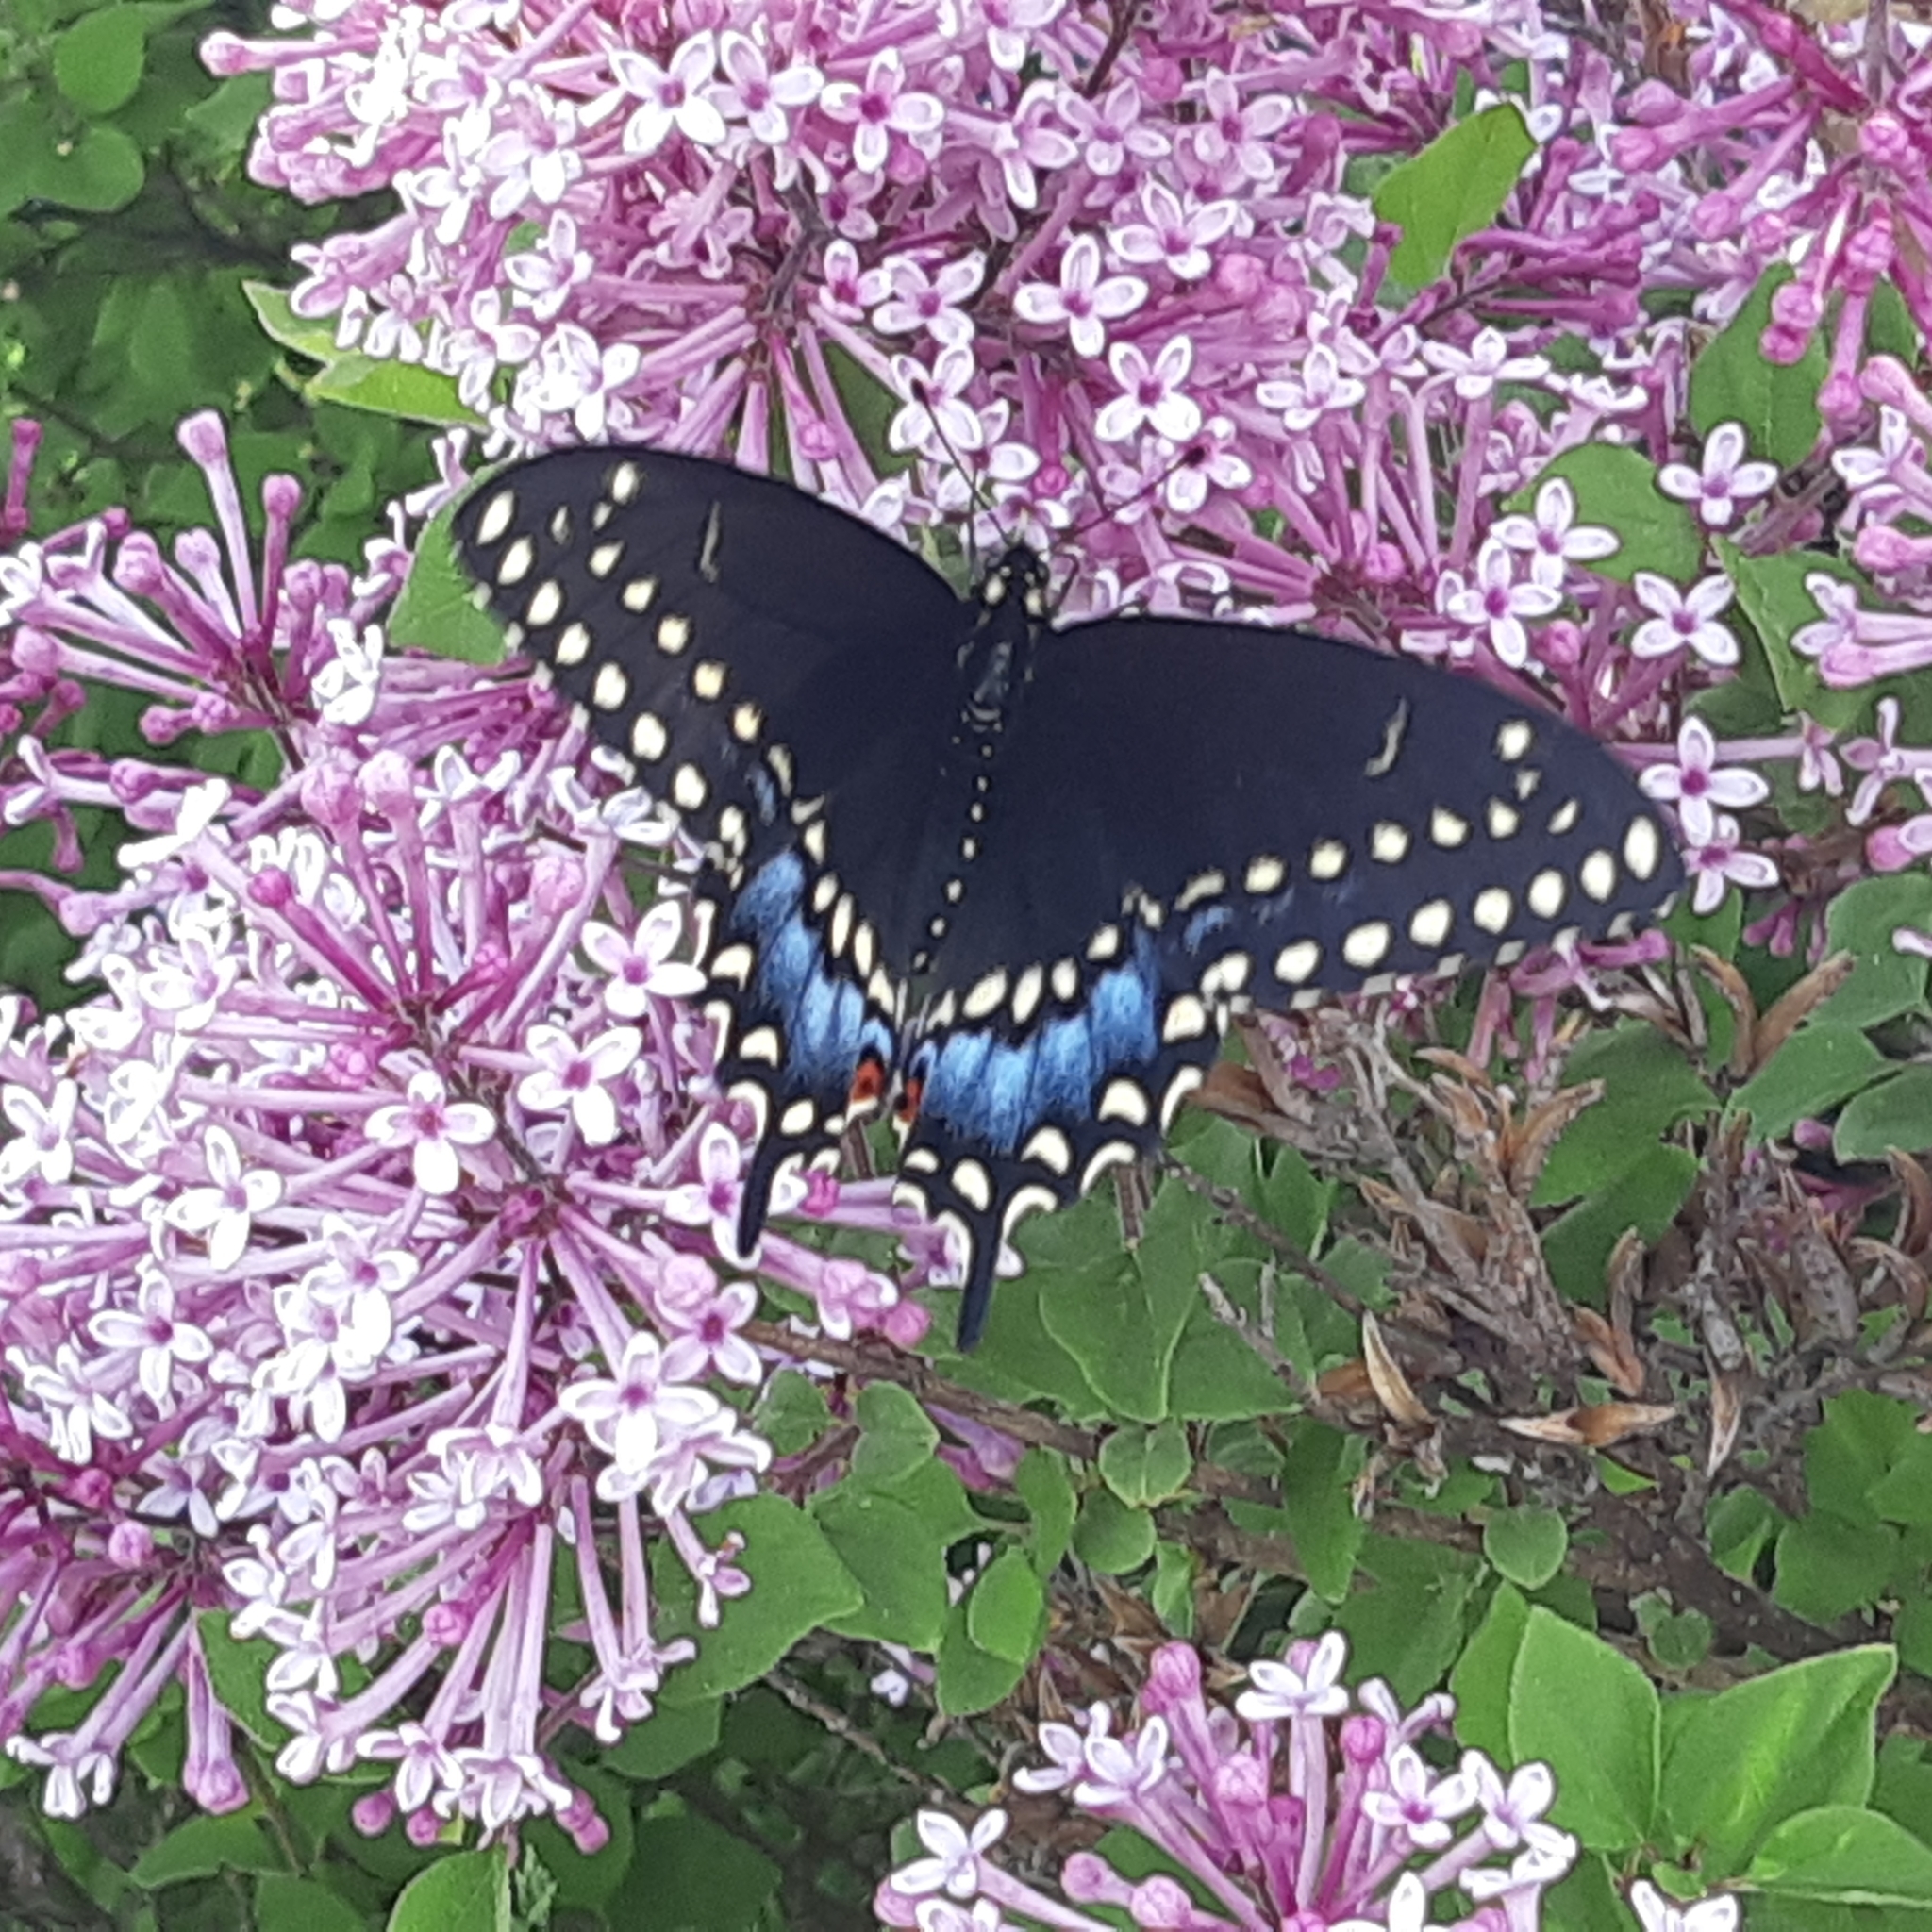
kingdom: Animalia
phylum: Arthropoda
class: Insecta
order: Lepidoptera
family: Papilionidae
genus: Papilio
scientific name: Papilio polyxenes
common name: Black swallowtail
